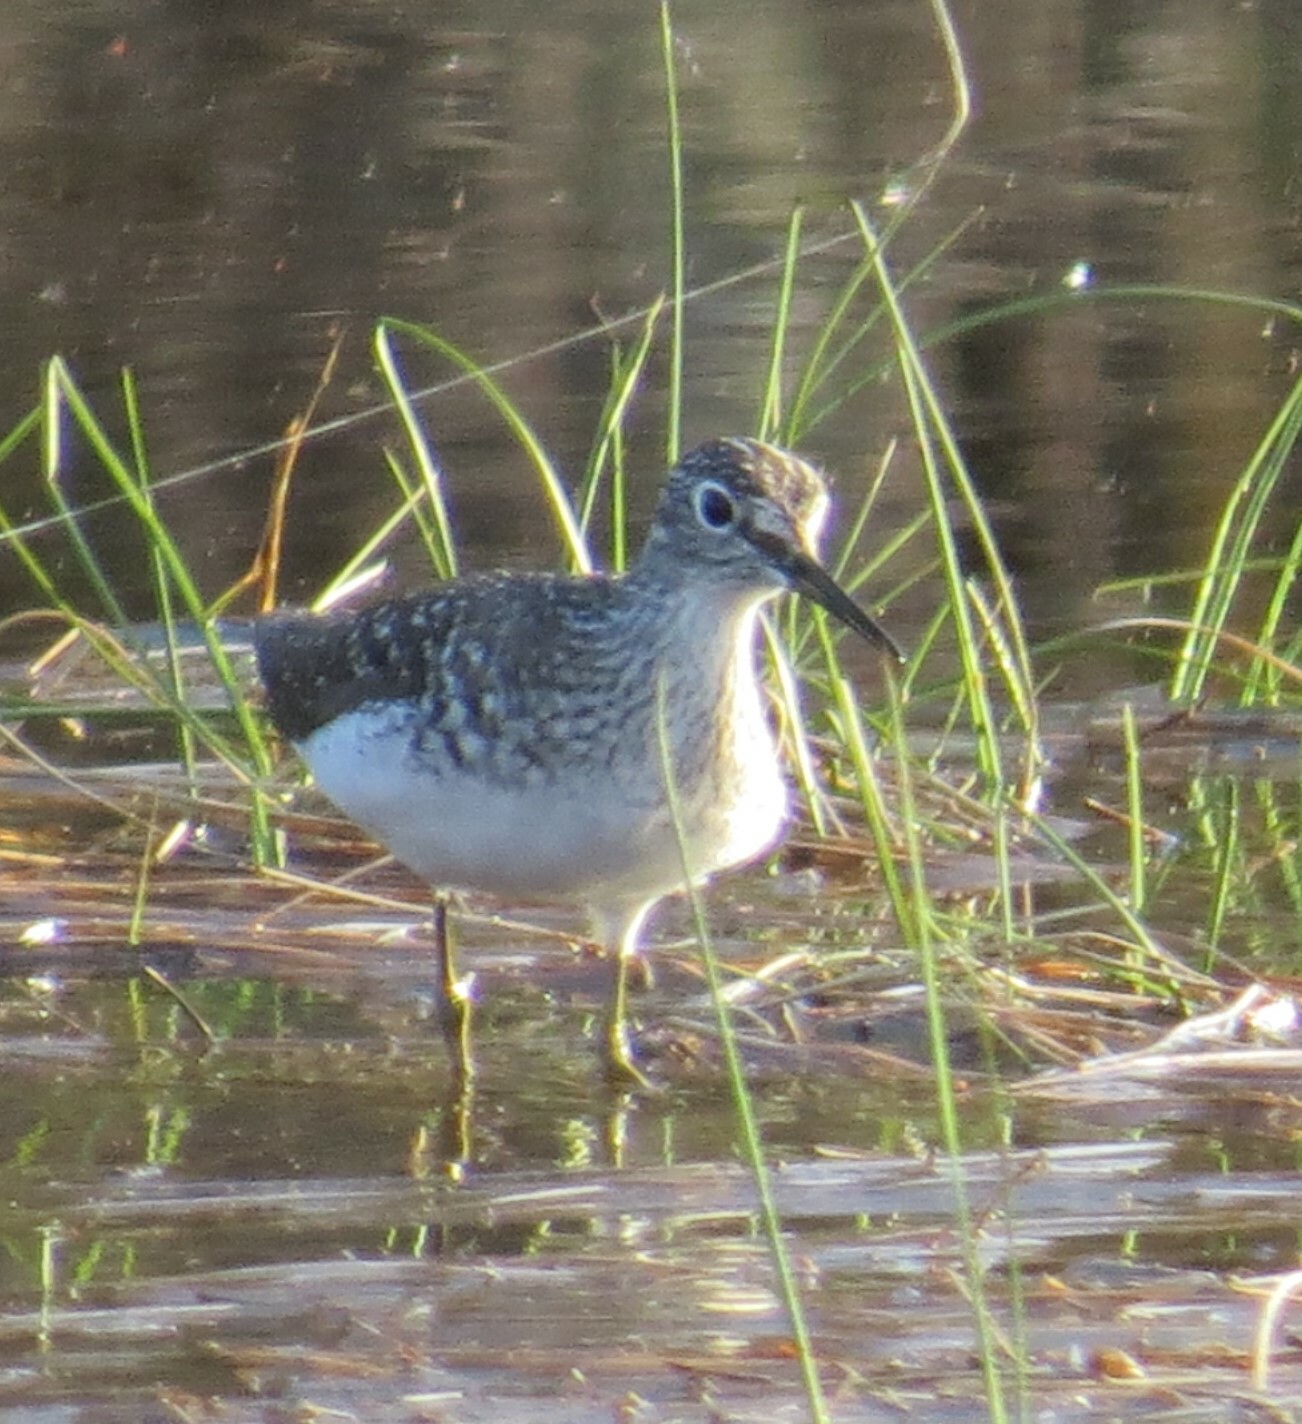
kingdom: Animalia
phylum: Chordata
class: Aves
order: Charadriiformes
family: Scolopacidae
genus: Tringa
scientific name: Tringa solitaria
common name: Solitary sandpiper
